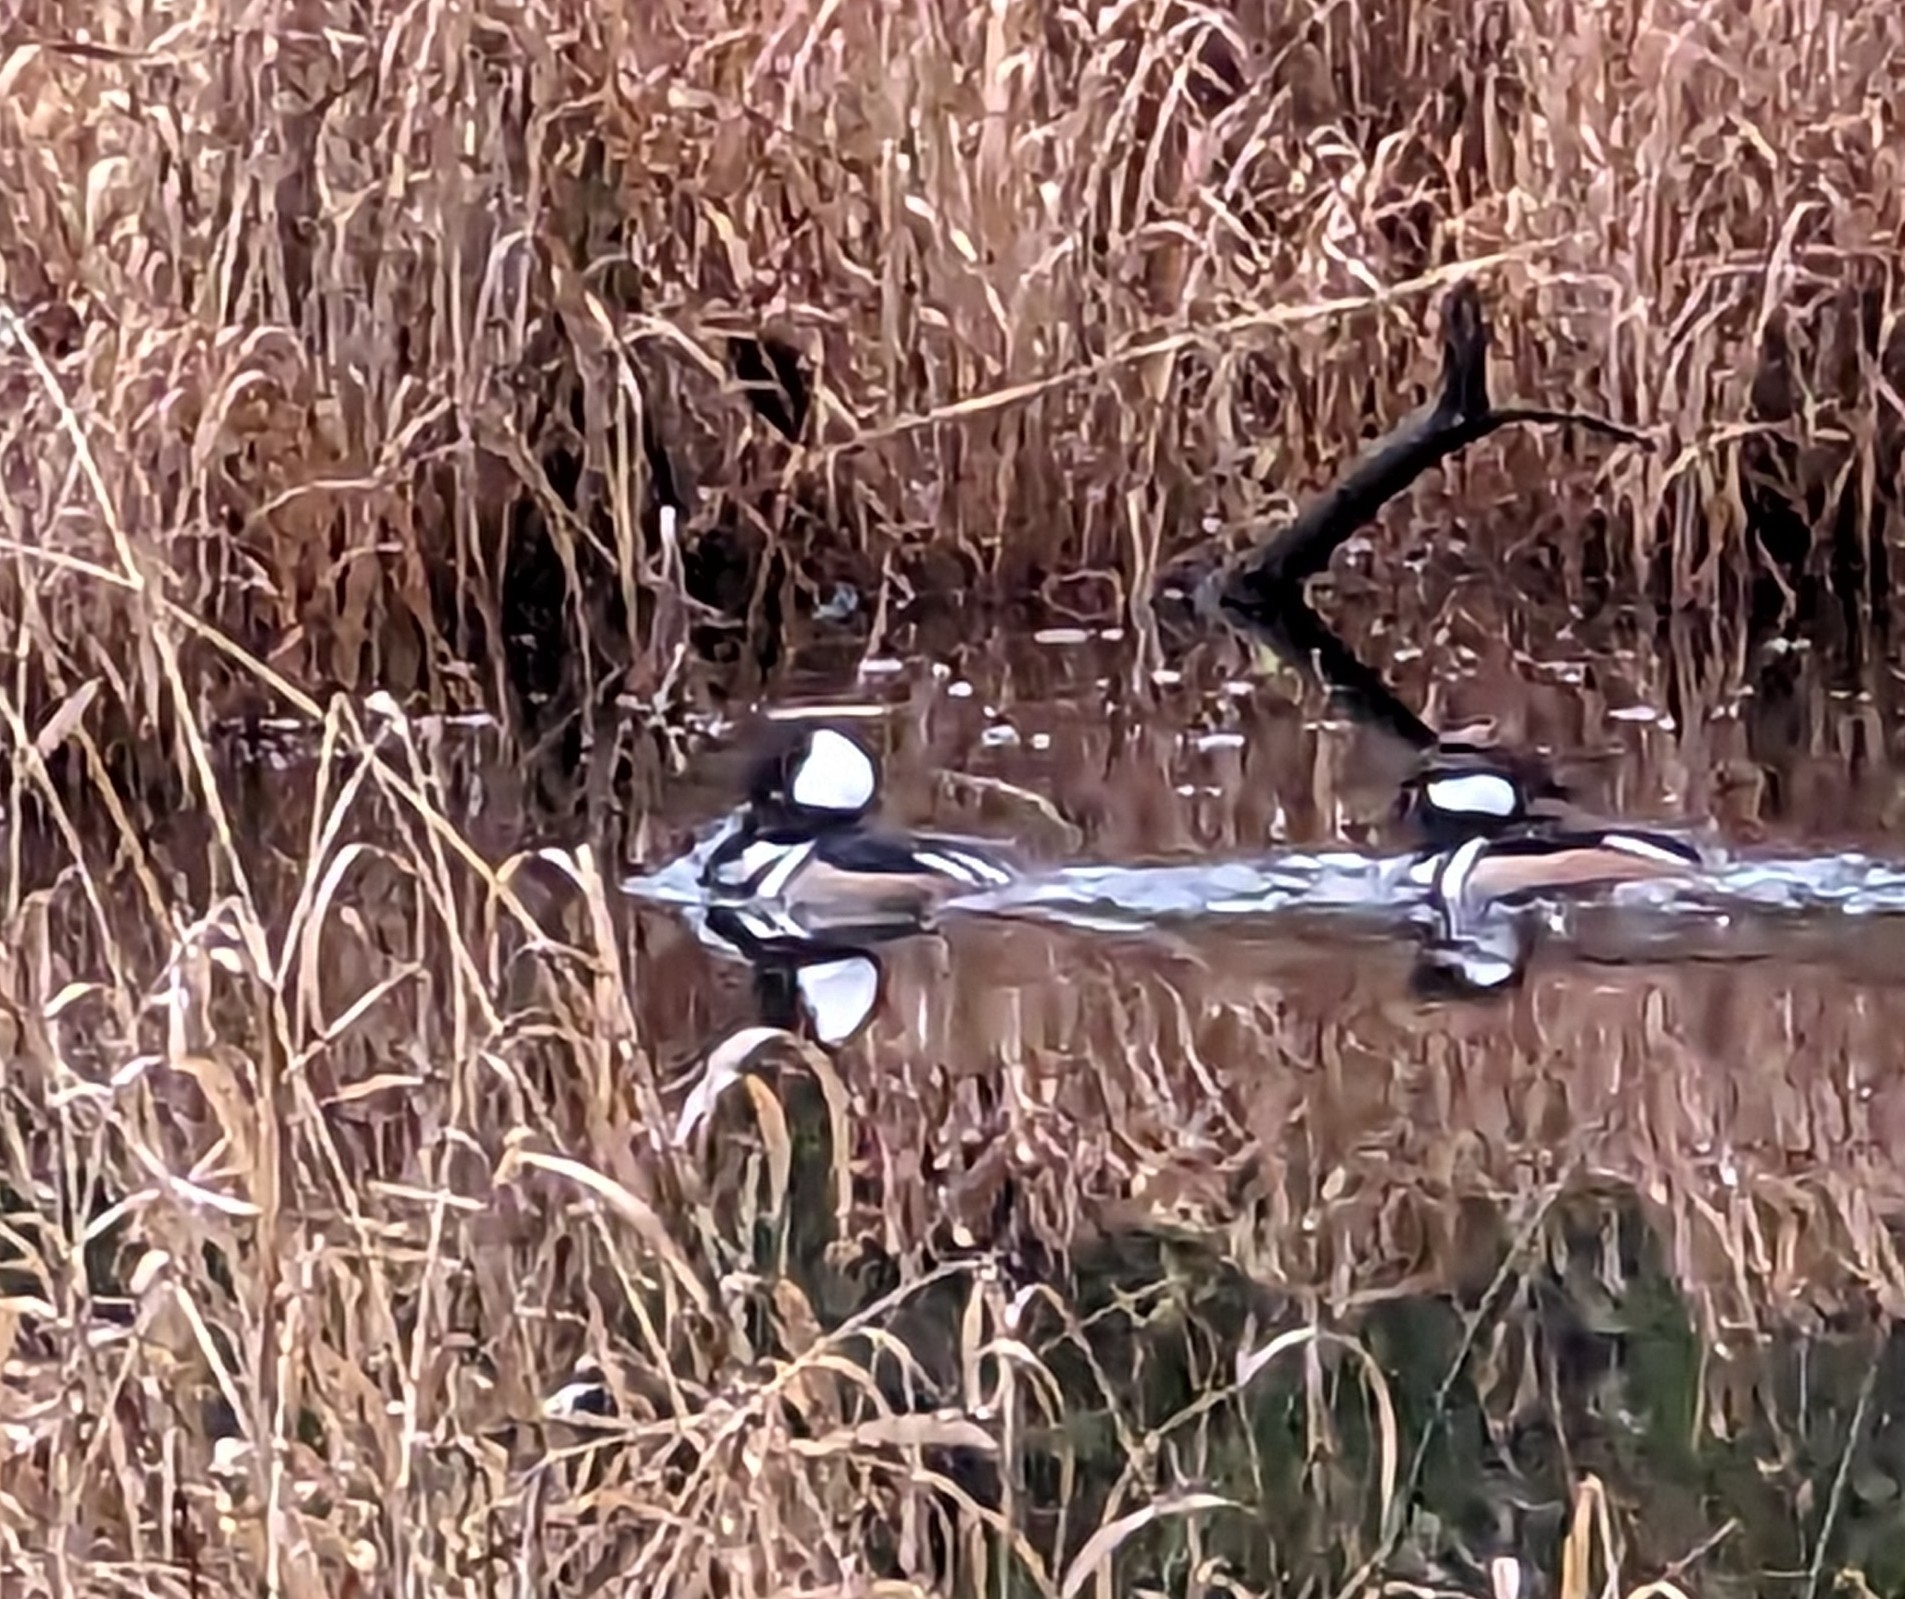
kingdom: Animalia
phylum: Chordata
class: Aves
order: Anseriformes
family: Anatidae
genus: Lophodytes
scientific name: Lophodytes cucullatus
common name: Hooded merganser
